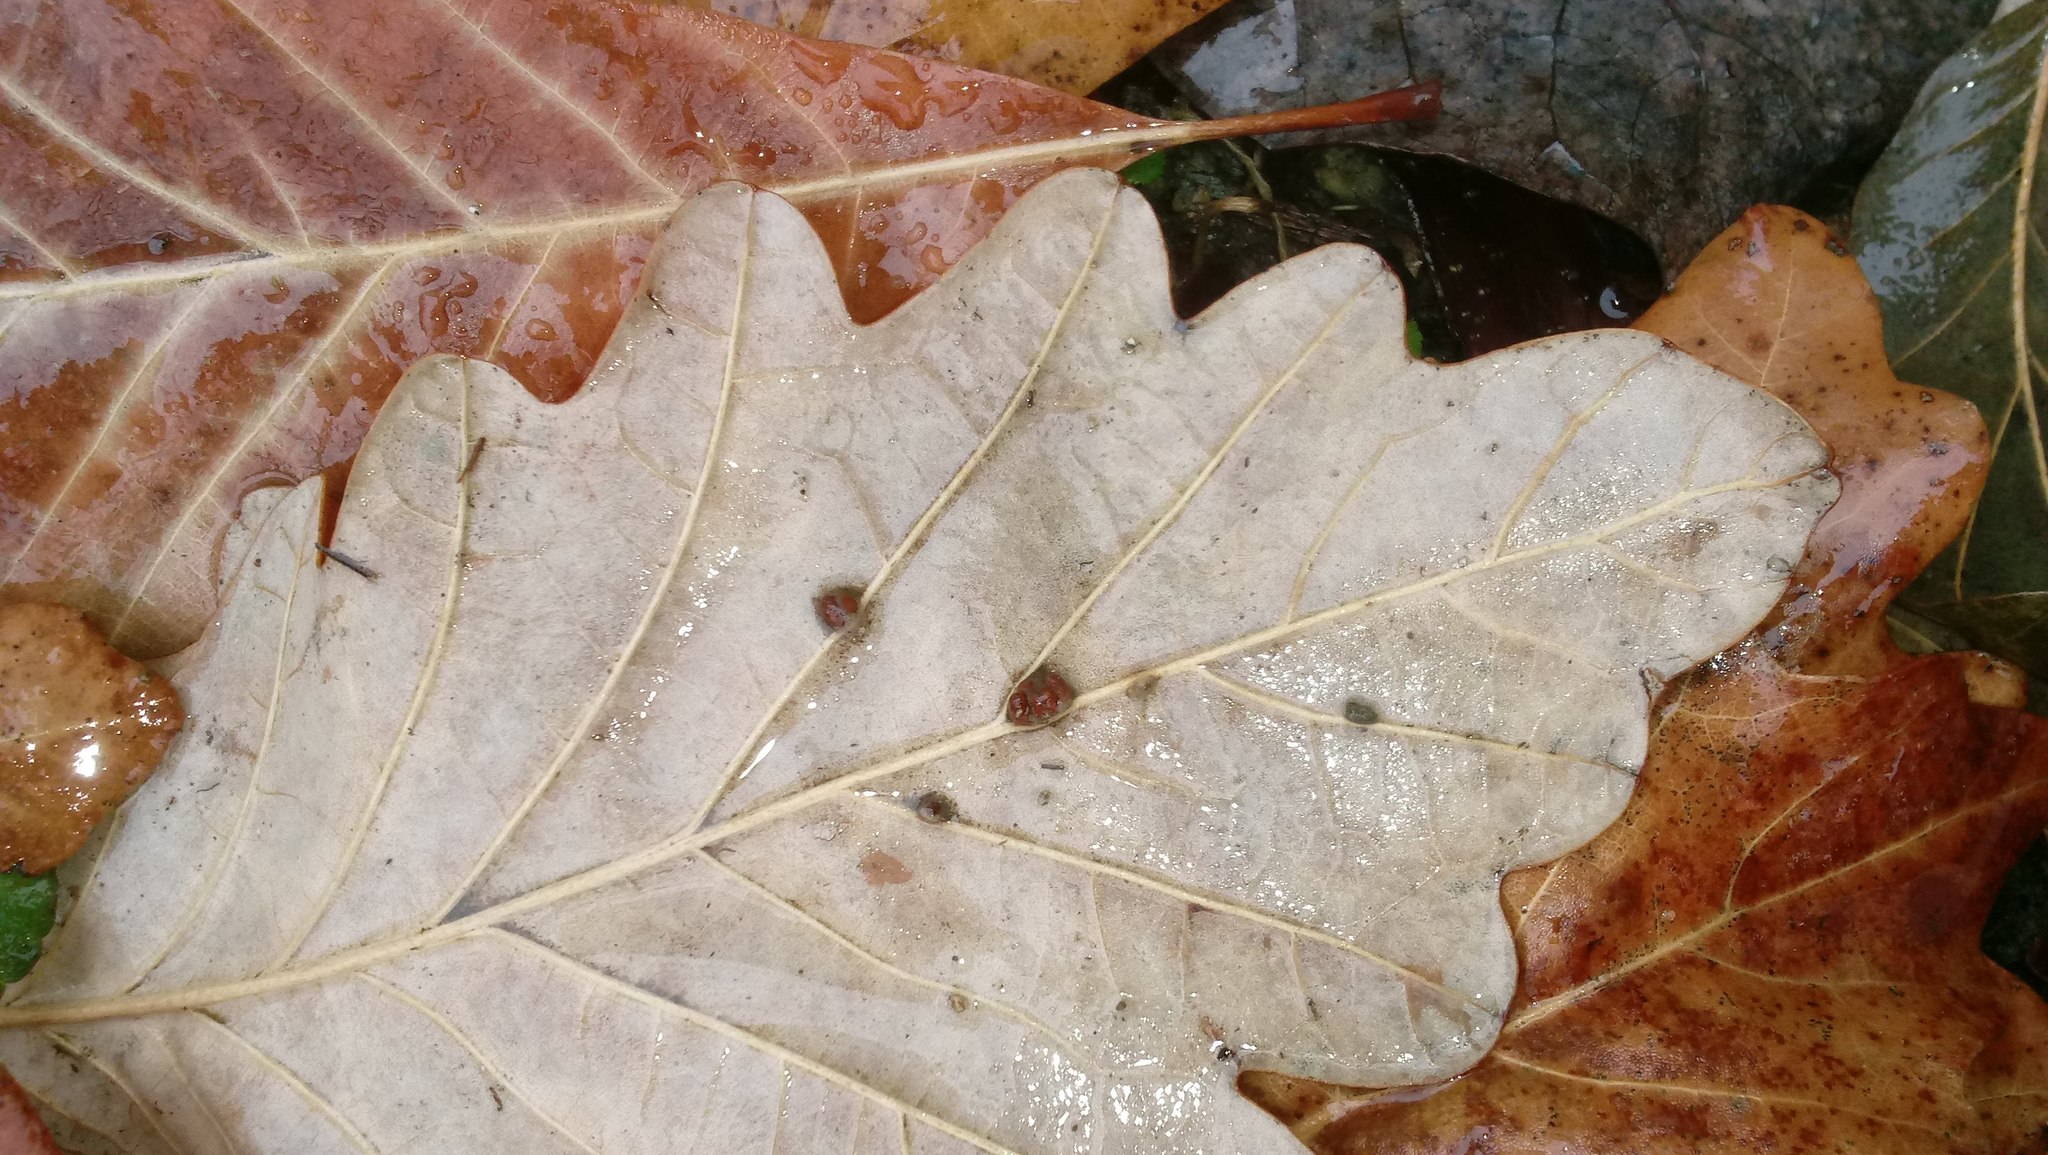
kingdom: Animalia
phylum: Arthropoda
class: Insecta
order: Hymenoptera
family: Cynipidae
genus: Andricus
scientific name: Andricus Druon ignotum
